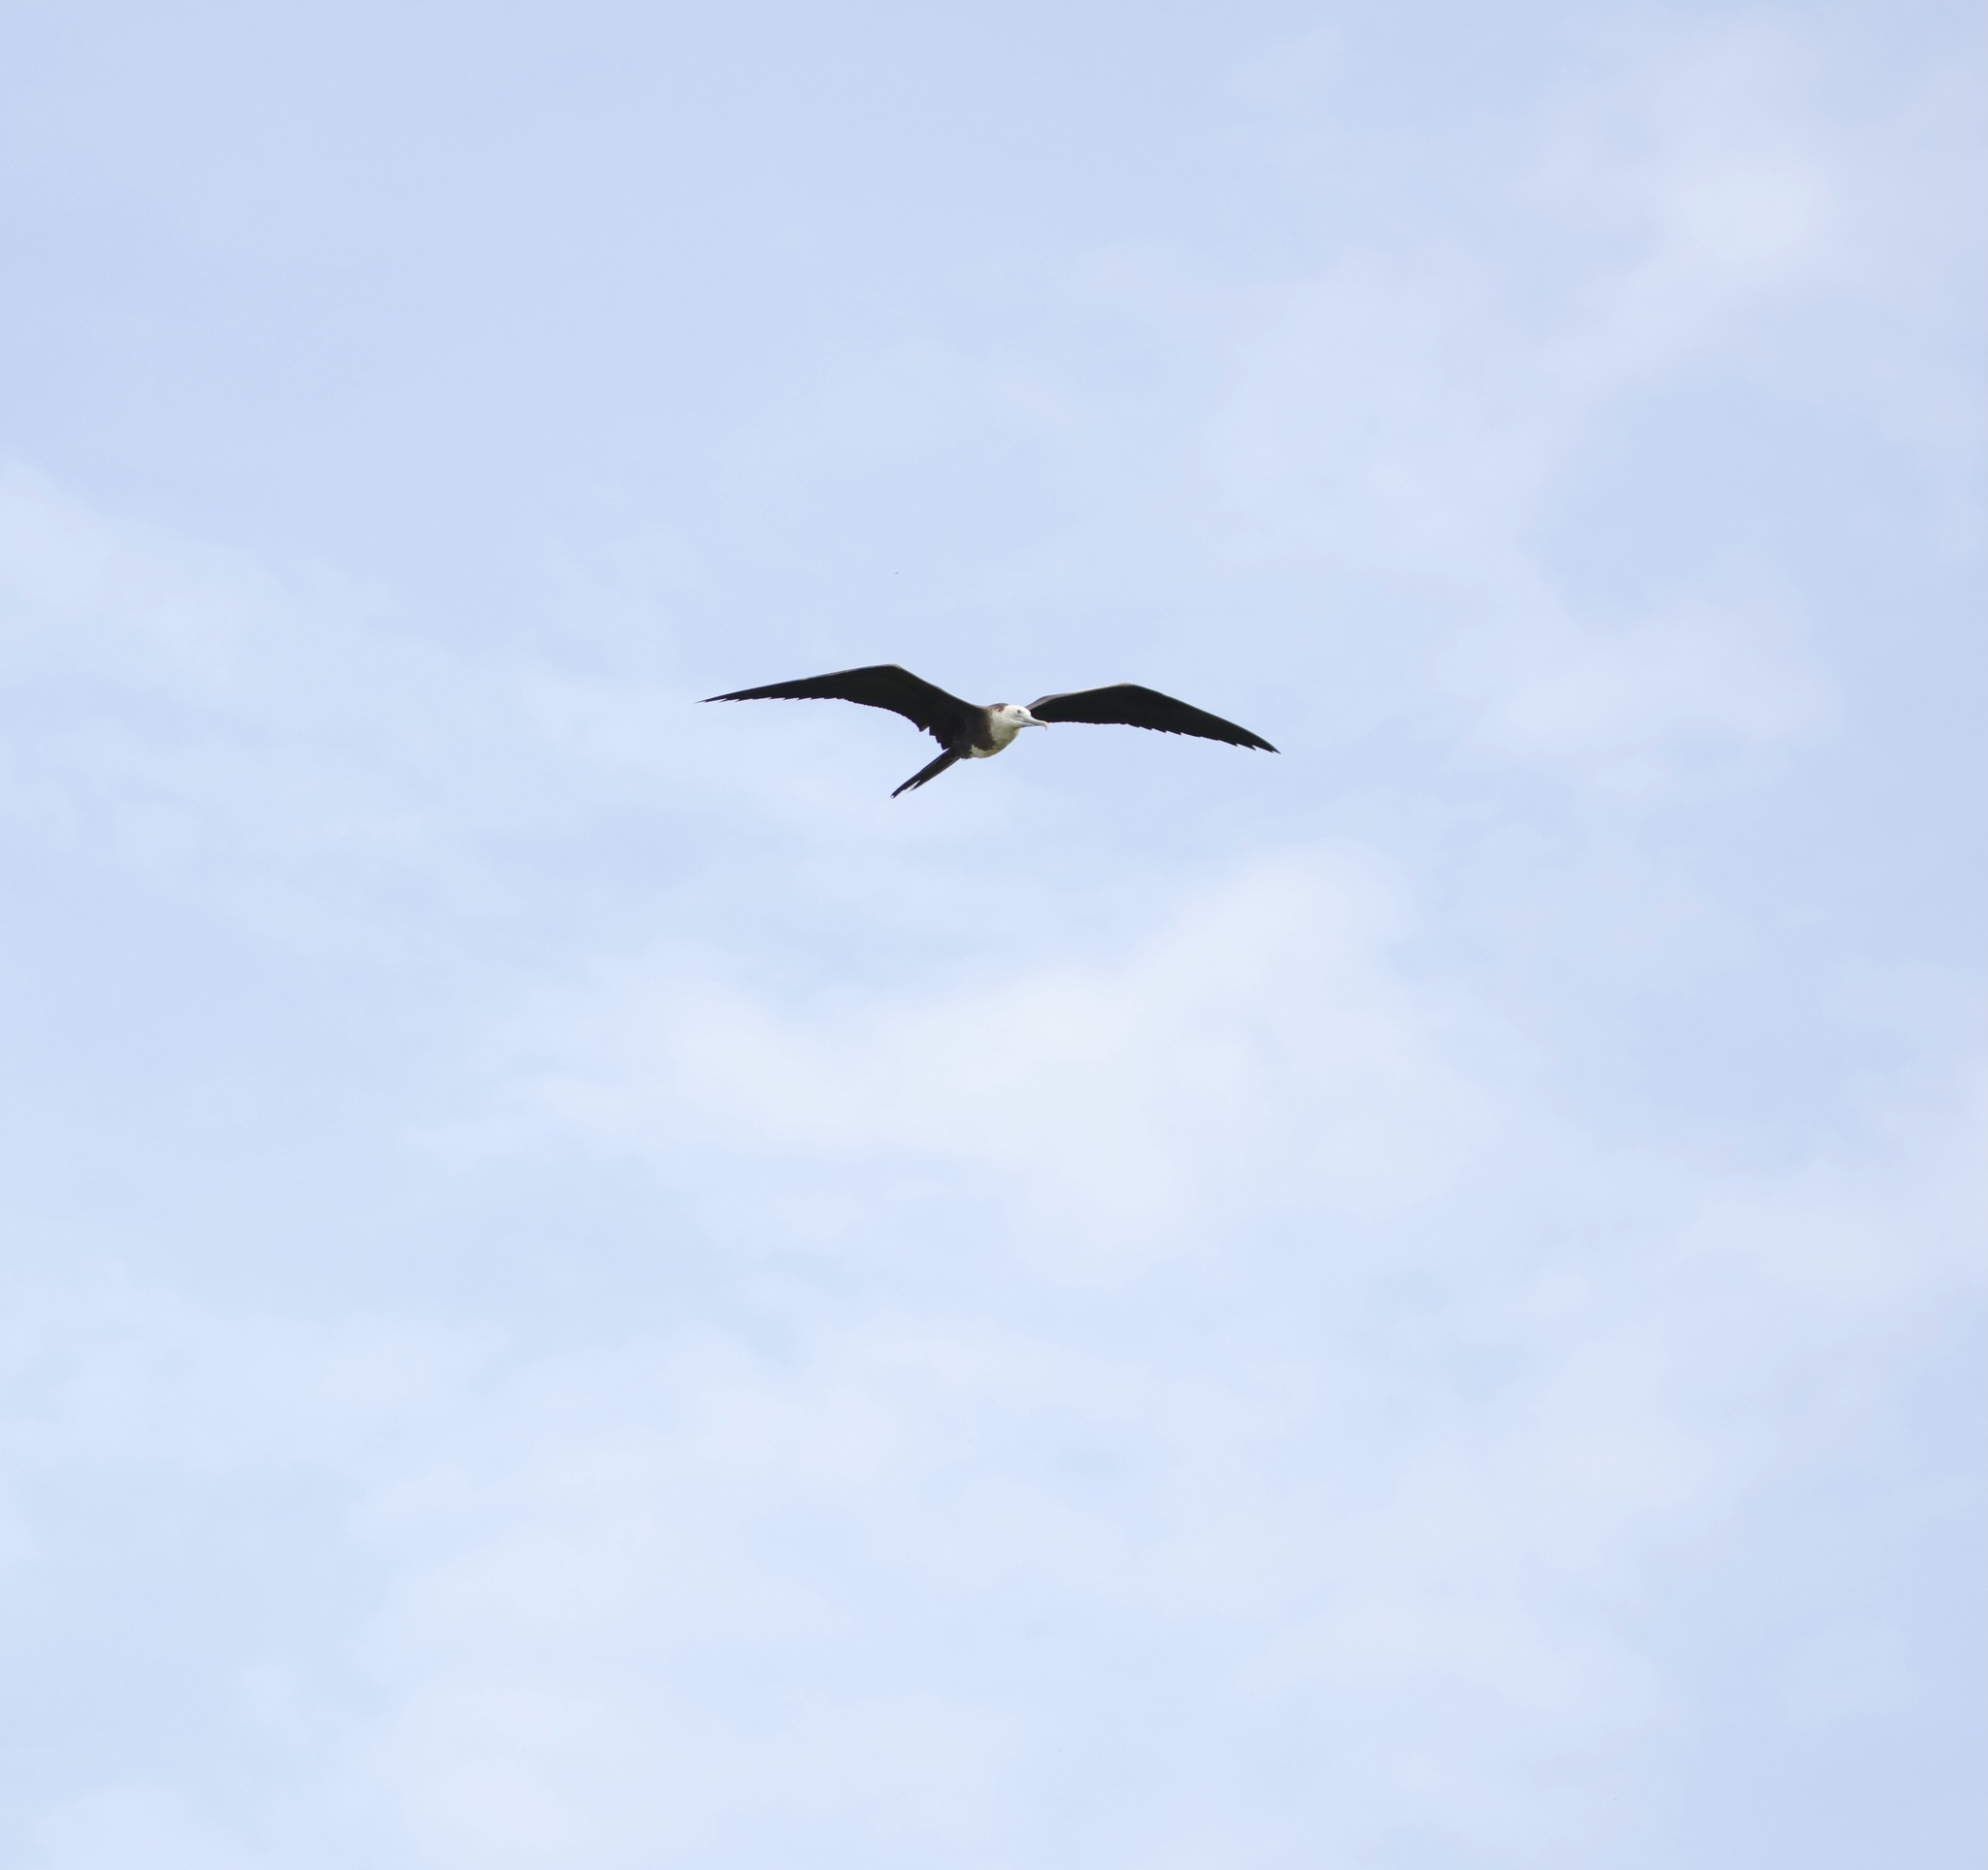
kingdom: Animalia
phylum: Chordata
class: Aves
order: Suliformes
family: Fregatidae
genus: Fregata
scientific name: Fregata magnificens
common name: Magnificent frigatebird
